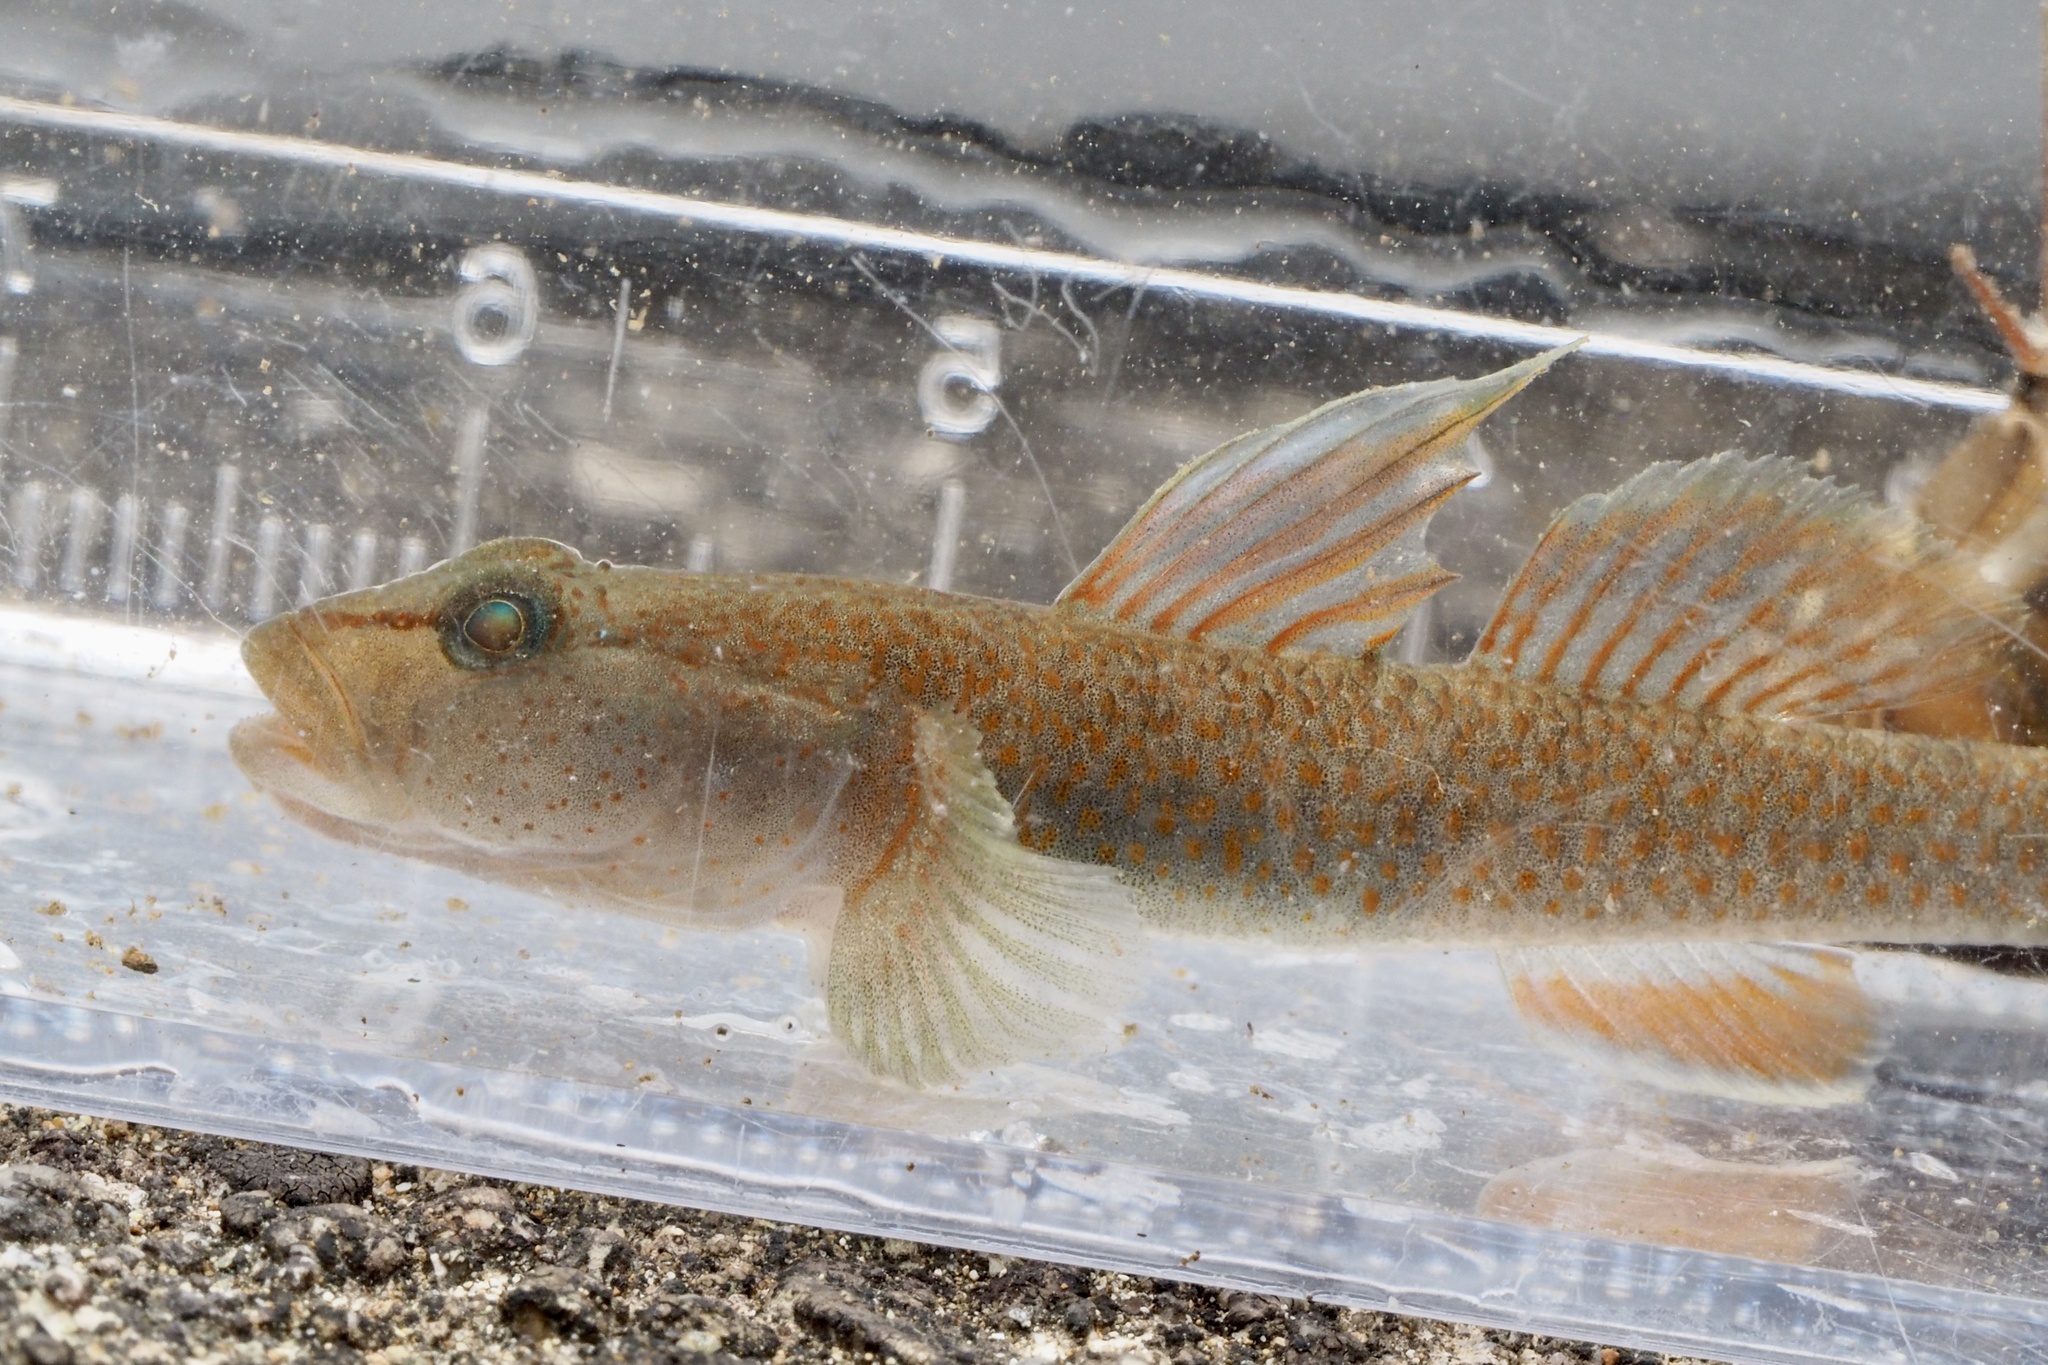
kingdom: Animalia
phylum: Chordata
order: Perciformes
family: Gobiidae
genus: Rhinogobius
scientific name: Rhinogobius flumineus
